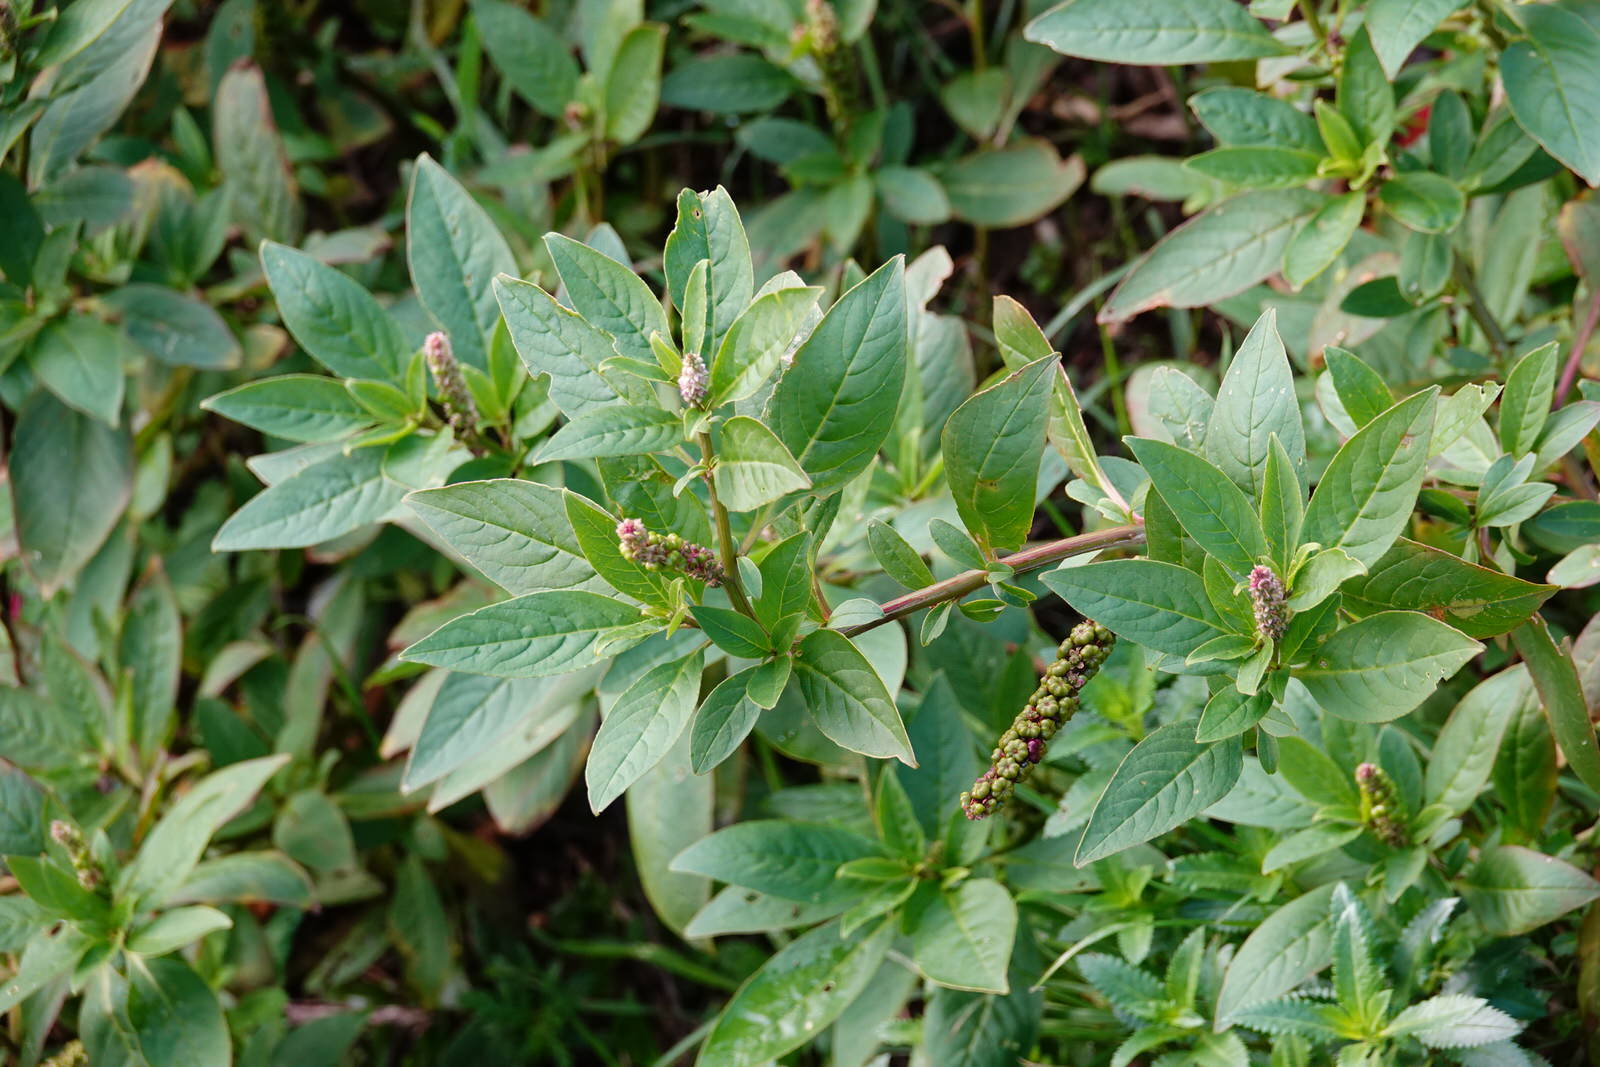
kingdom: Plantae
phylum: Tracheophyta
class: Magnoliopsida
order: Caryophyllales
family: Phytolaccaceae
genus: Phytolacca
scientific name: Phytolacca icosandra
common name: Button pokeweed
